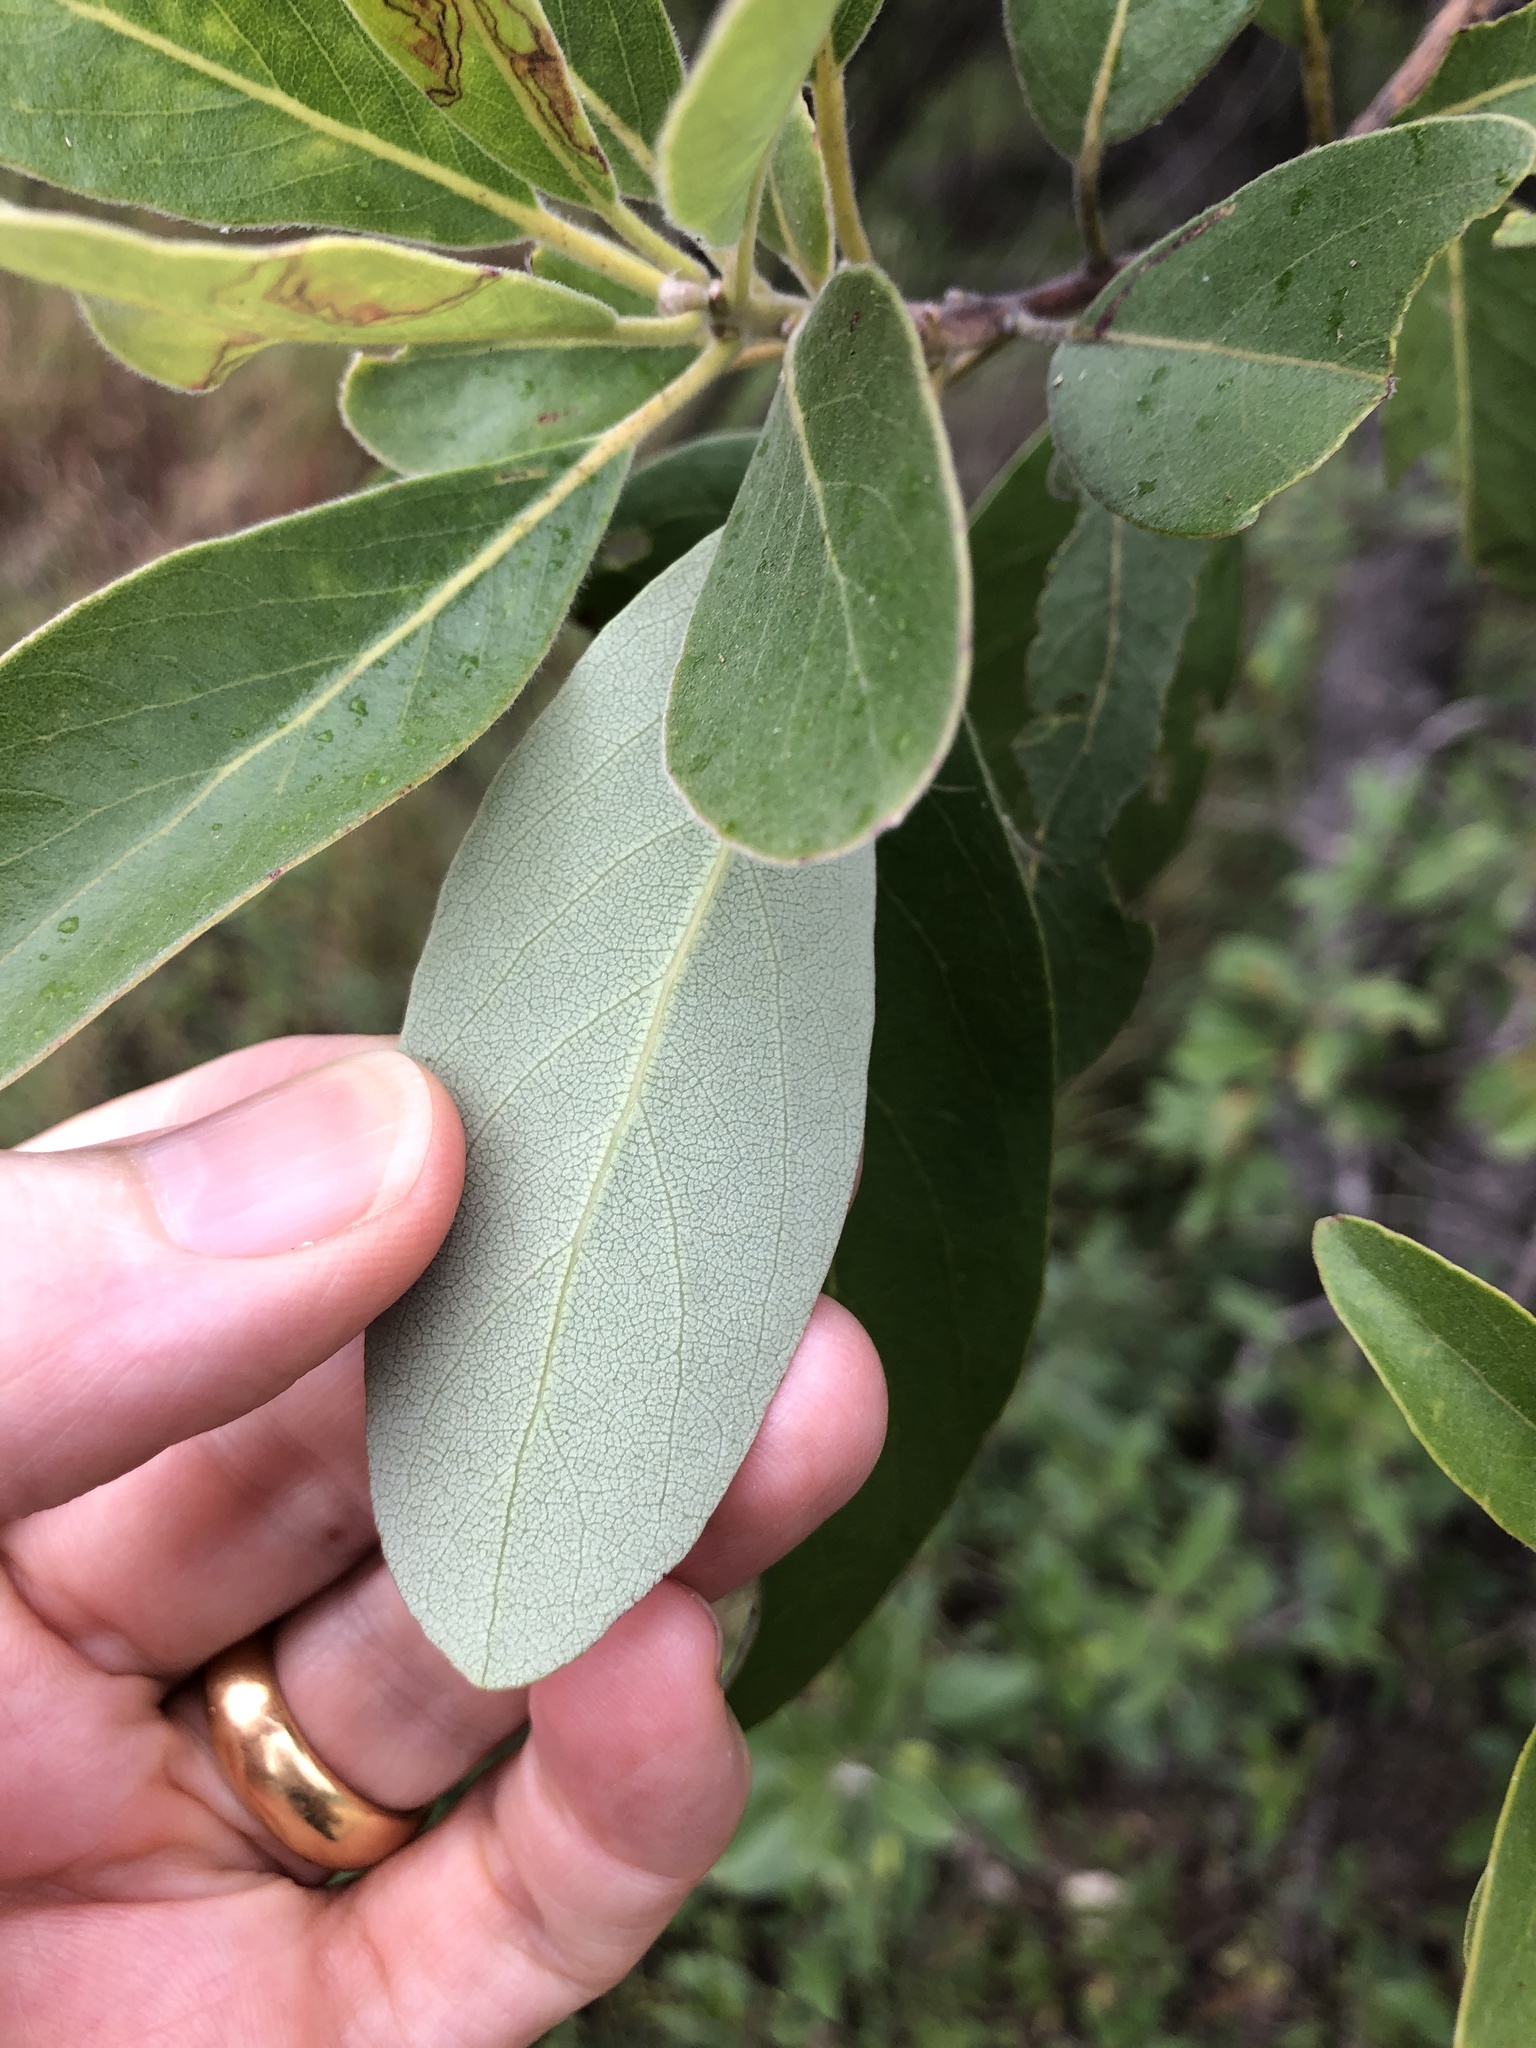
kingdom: Plantae
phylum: Tracheophyta
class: Magnoliopsida
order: Myrtales
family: Myrtaceae
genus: Lophostemon
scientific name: Lophostemon grandiflorus
